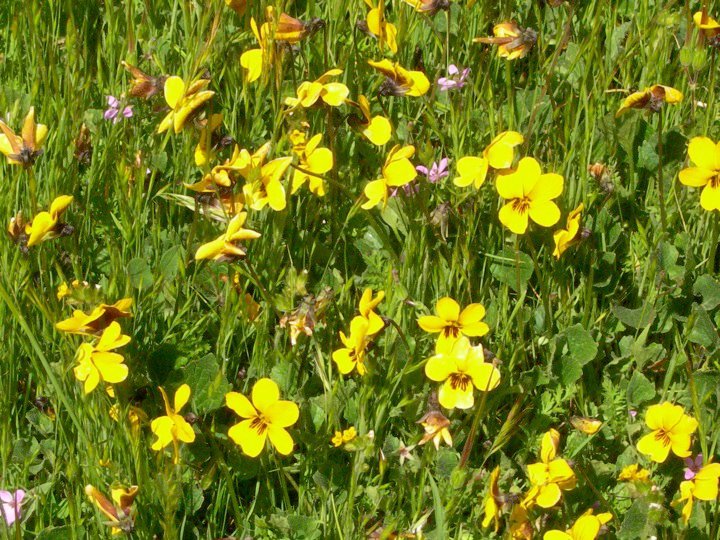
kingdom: Plantae
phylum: Tracheophyta
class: Magnoliopsida
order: Malpighiales
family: Violaceae
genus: Viola
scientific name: Viola pedunculata
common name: California golden violet
